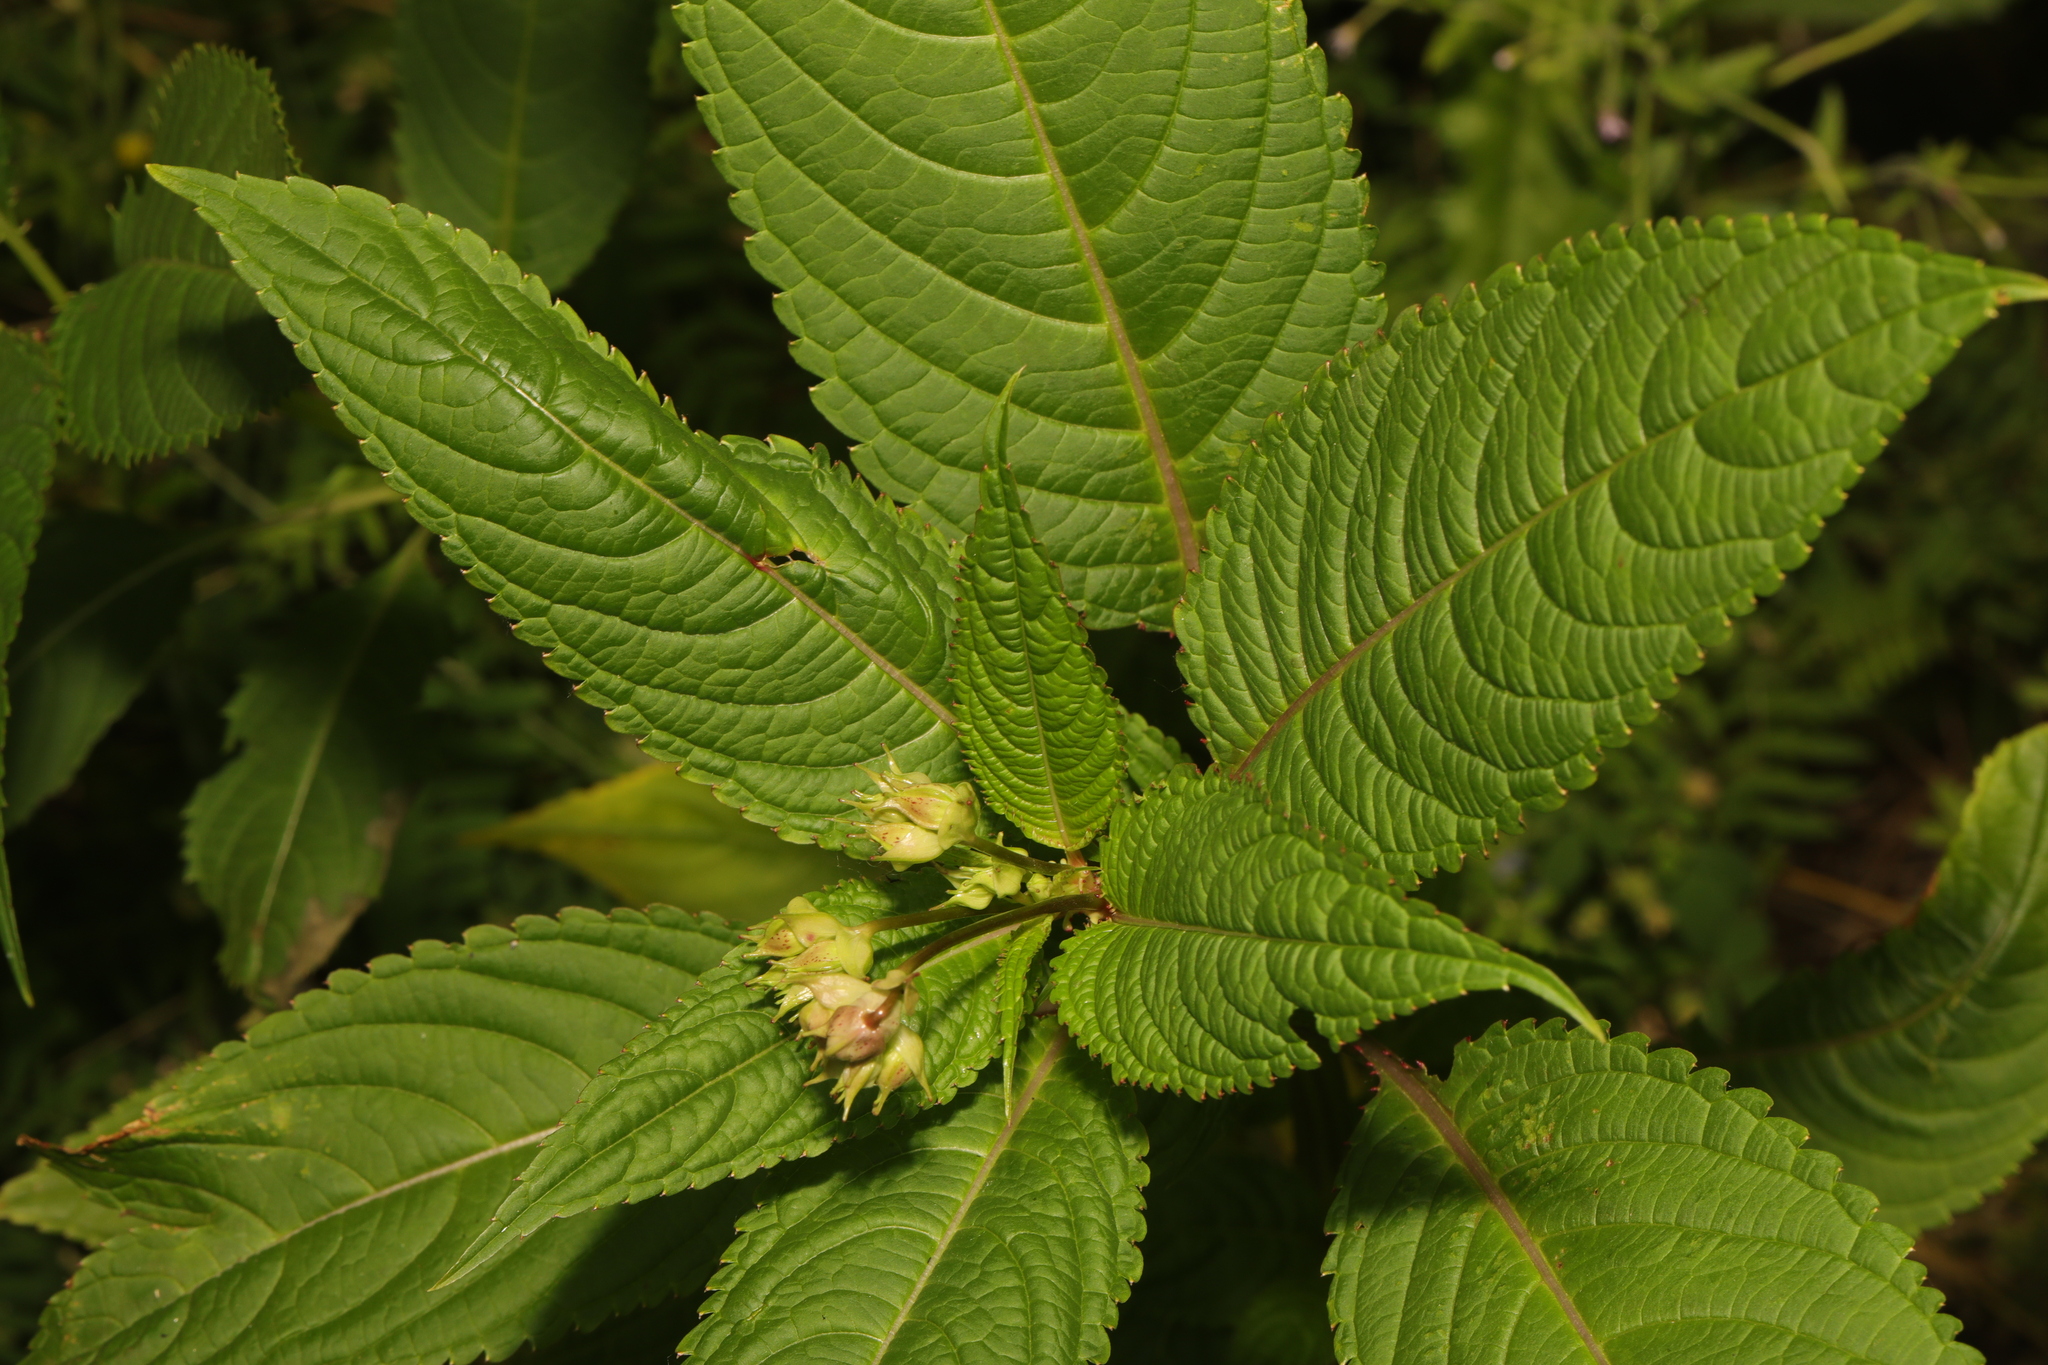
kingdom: Plantae
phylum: Tracheophyta
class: Magnoliopsida
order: Ericales
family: Balsaminaceae
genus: Impatiens
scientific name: Impatiens glandulifera
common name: Himalayan balsam
